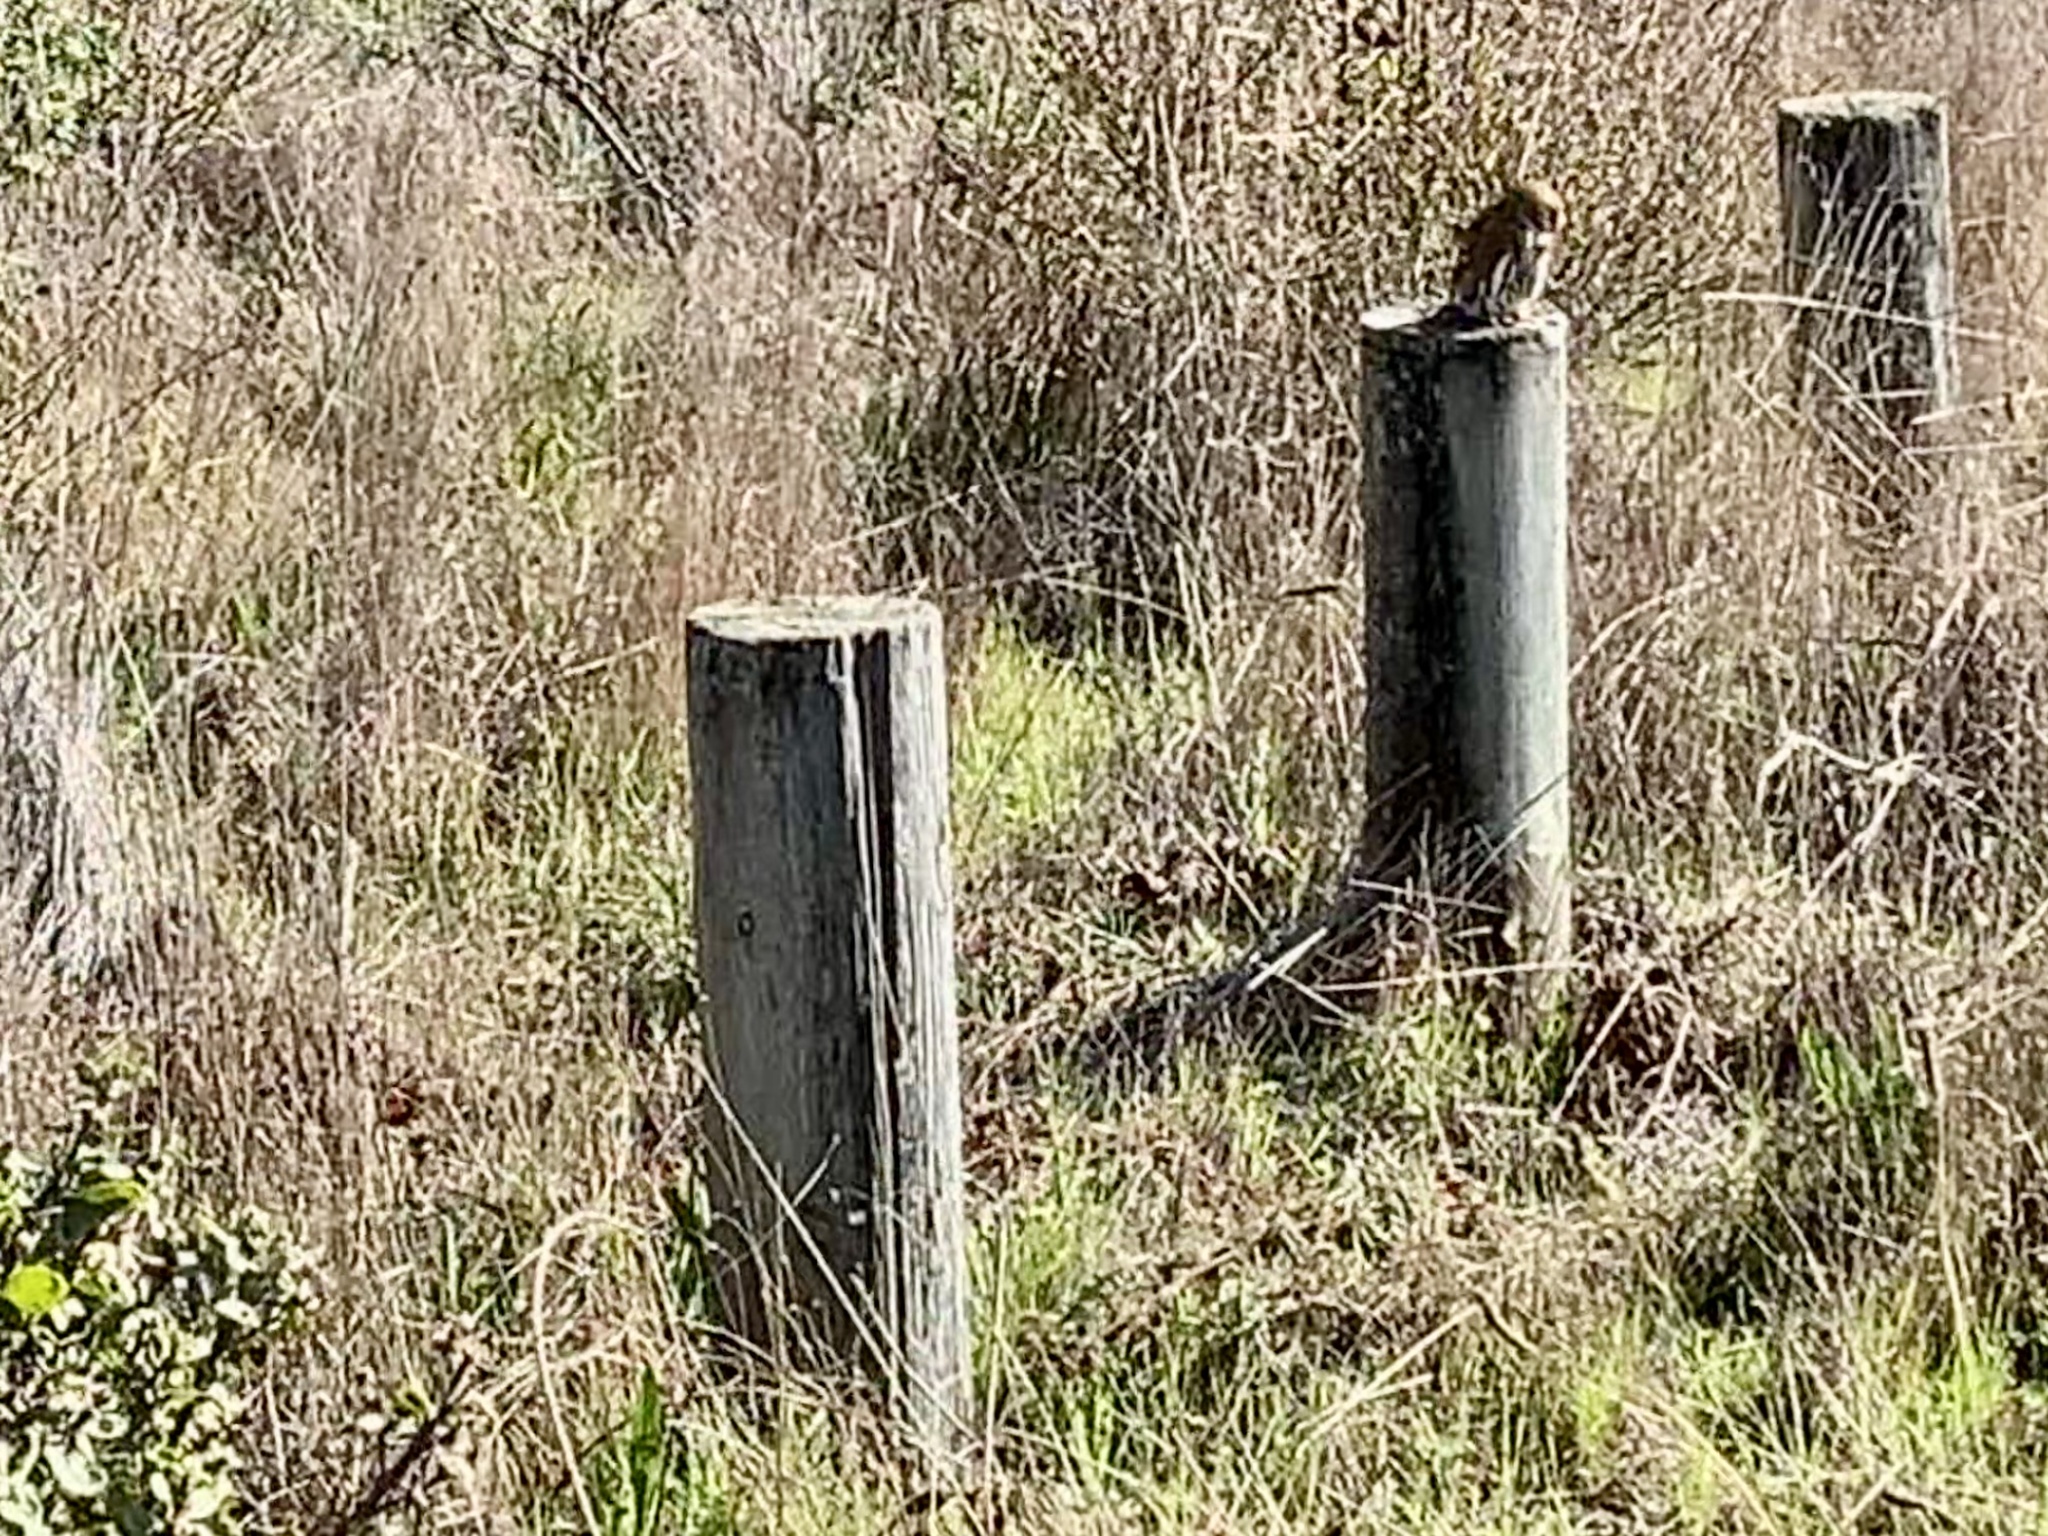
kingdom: Animalia
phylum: Chordata
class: Aves
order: Strigiformes
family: Strigidae
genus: Glaucidium
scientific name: Glaucidium gnoma
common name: Northern pygmy-owl
